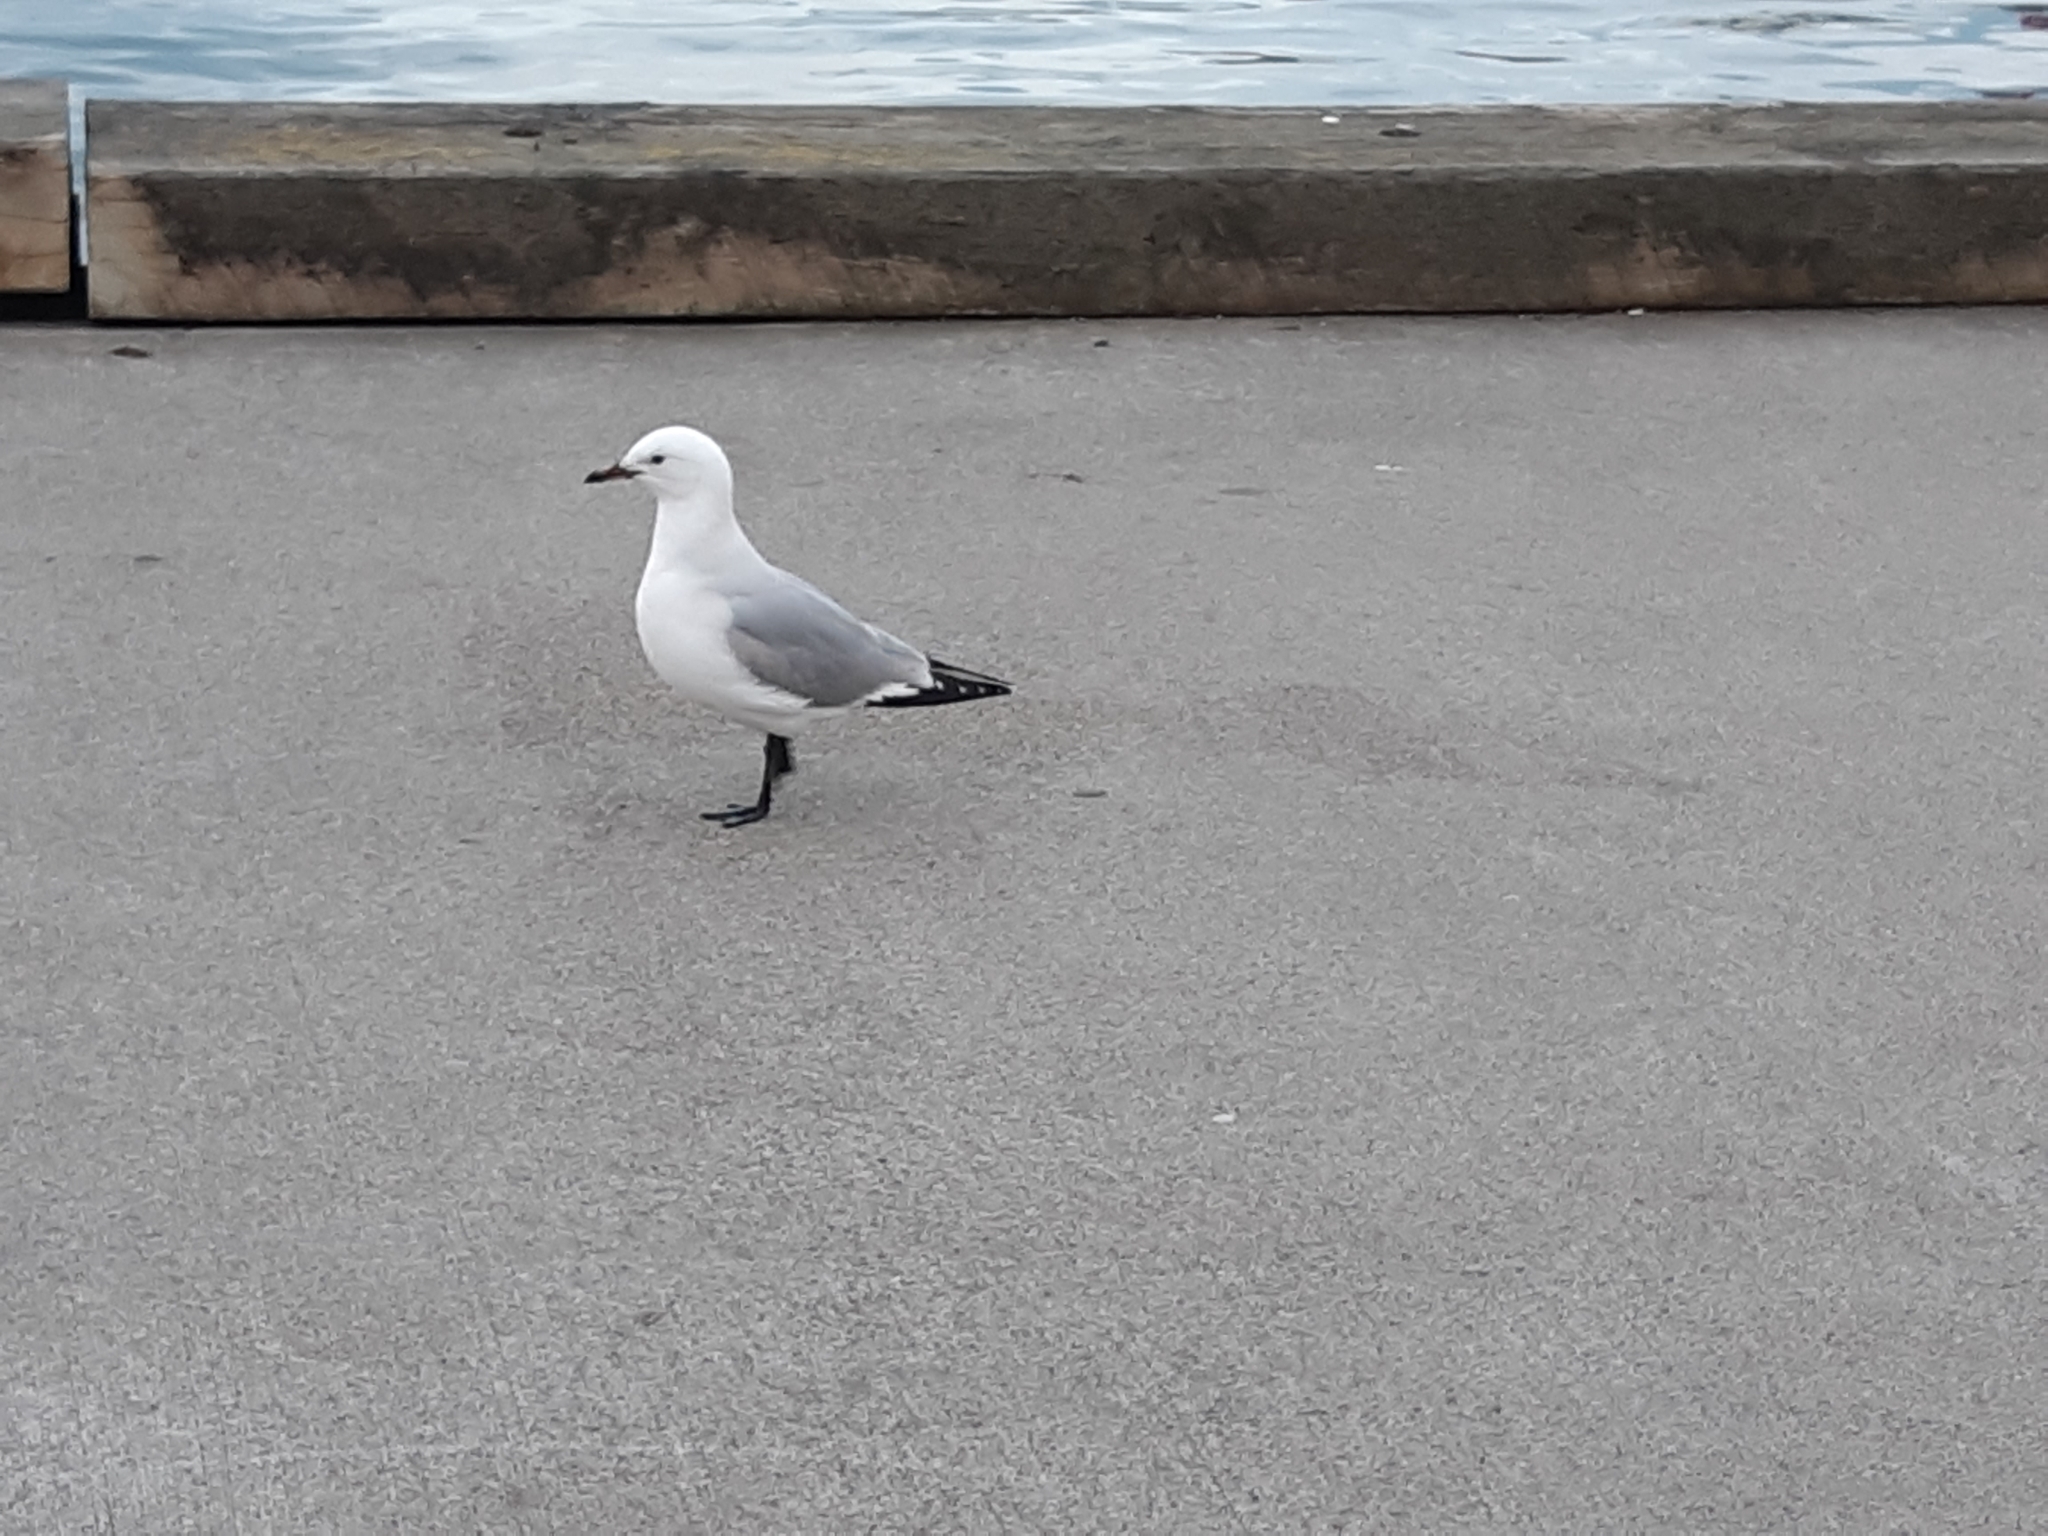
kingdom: Animalia
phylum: Chordata
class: Aves
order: Charadriiformes
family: Laridae
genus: Chroicocephalus
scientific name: Chroicocephalus bulleri
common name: Black-billed gull
